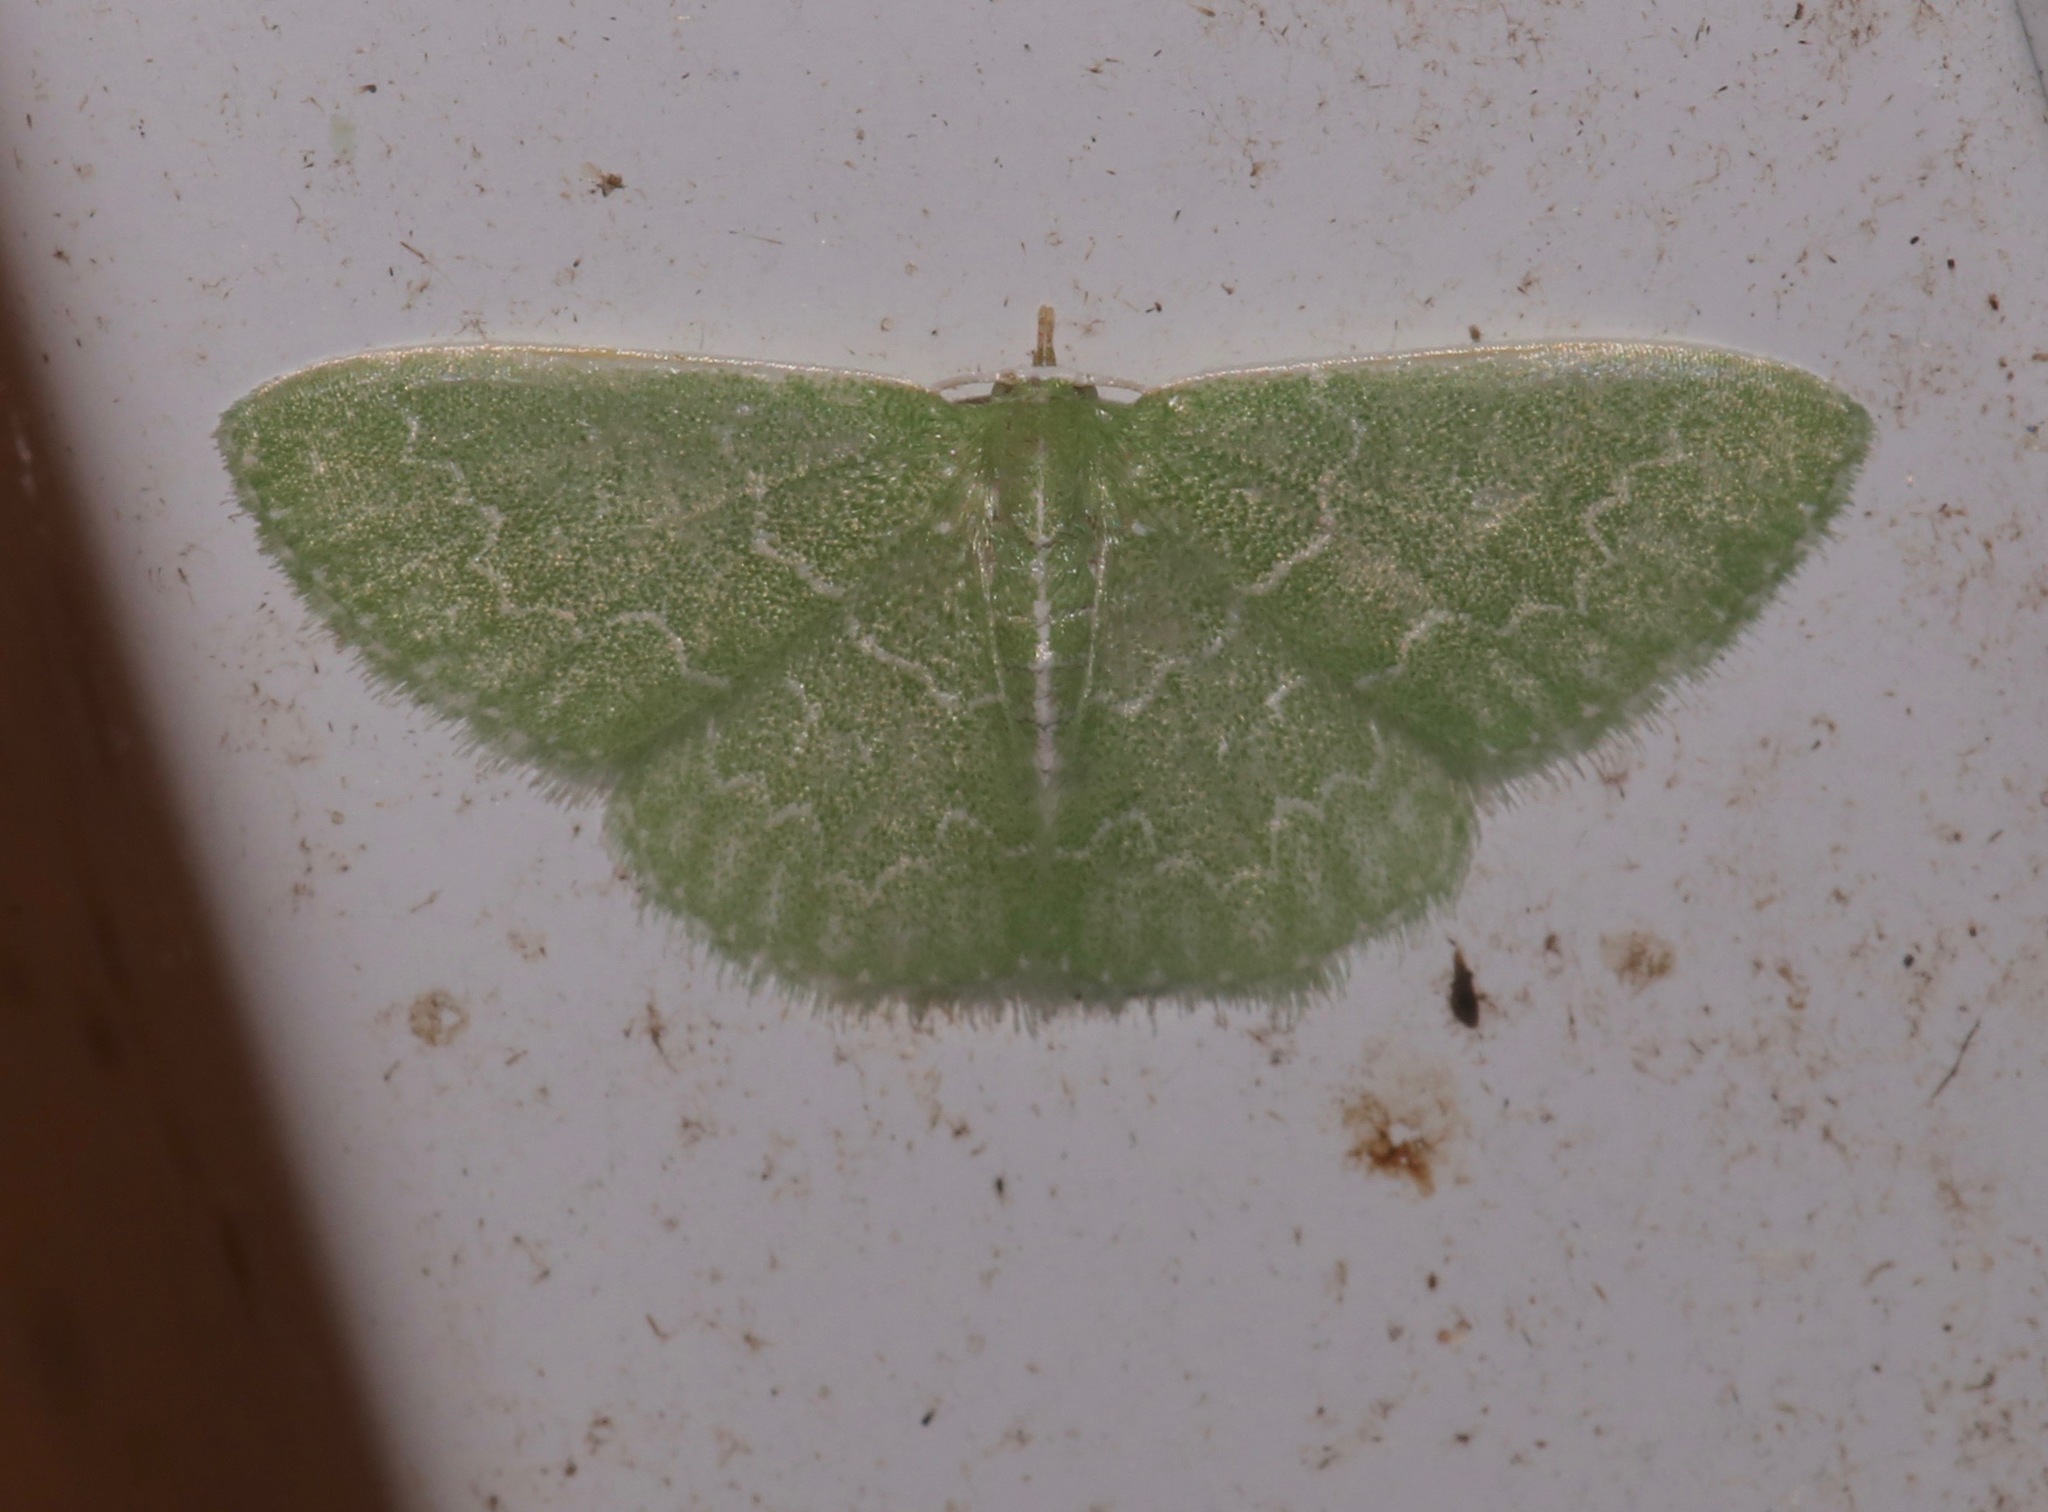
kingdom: Animalia
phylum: Arthropoda
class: Insecta
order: Lepidoptera
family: Geometridae
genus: Synchlora
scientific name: Synchlora frondaria
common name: Southern emerald
